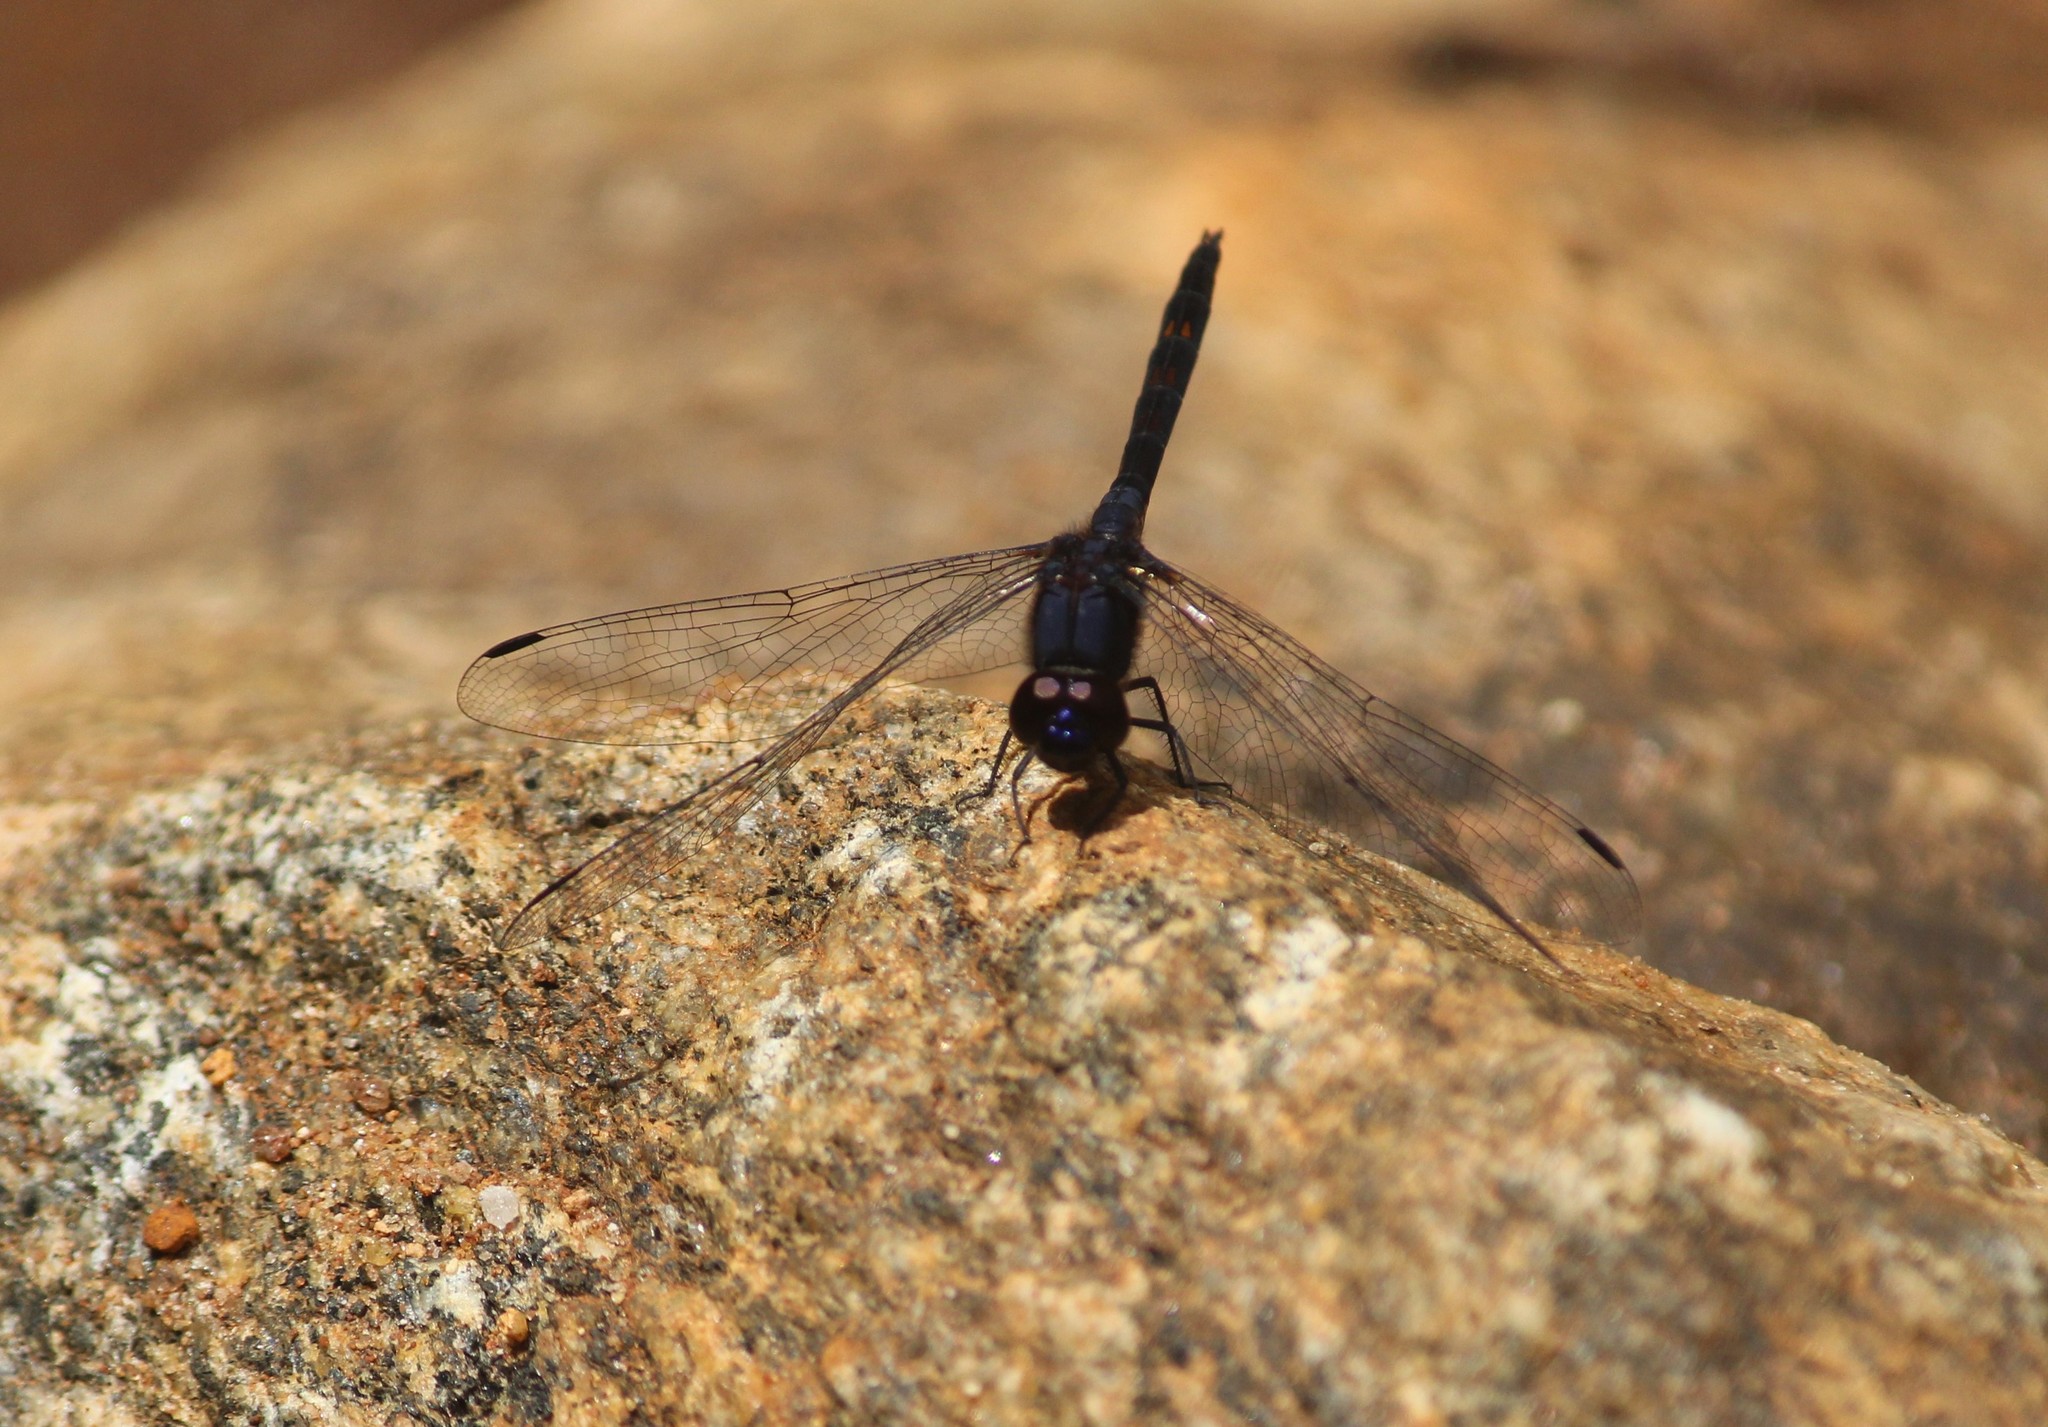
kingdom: Animalia
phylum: Arthropoda
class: Insecta
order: Odonata
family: Libellulidae
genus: Trithemis
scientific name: Trithemis festiva
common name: Indigo dropwing
